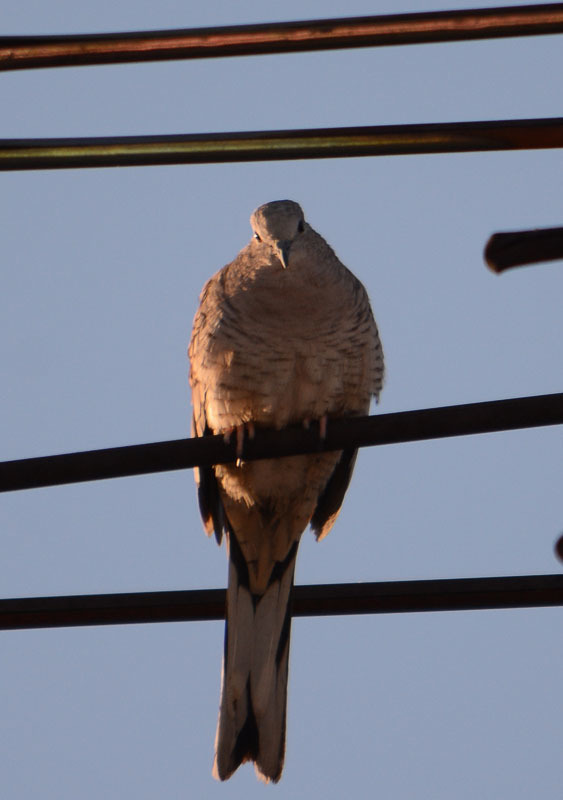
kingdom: Animalia
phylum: Chordata
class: Aves
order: Columbiformes
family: Columbidae
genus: Columbina
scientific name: Columbina inca
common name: Inca dove
